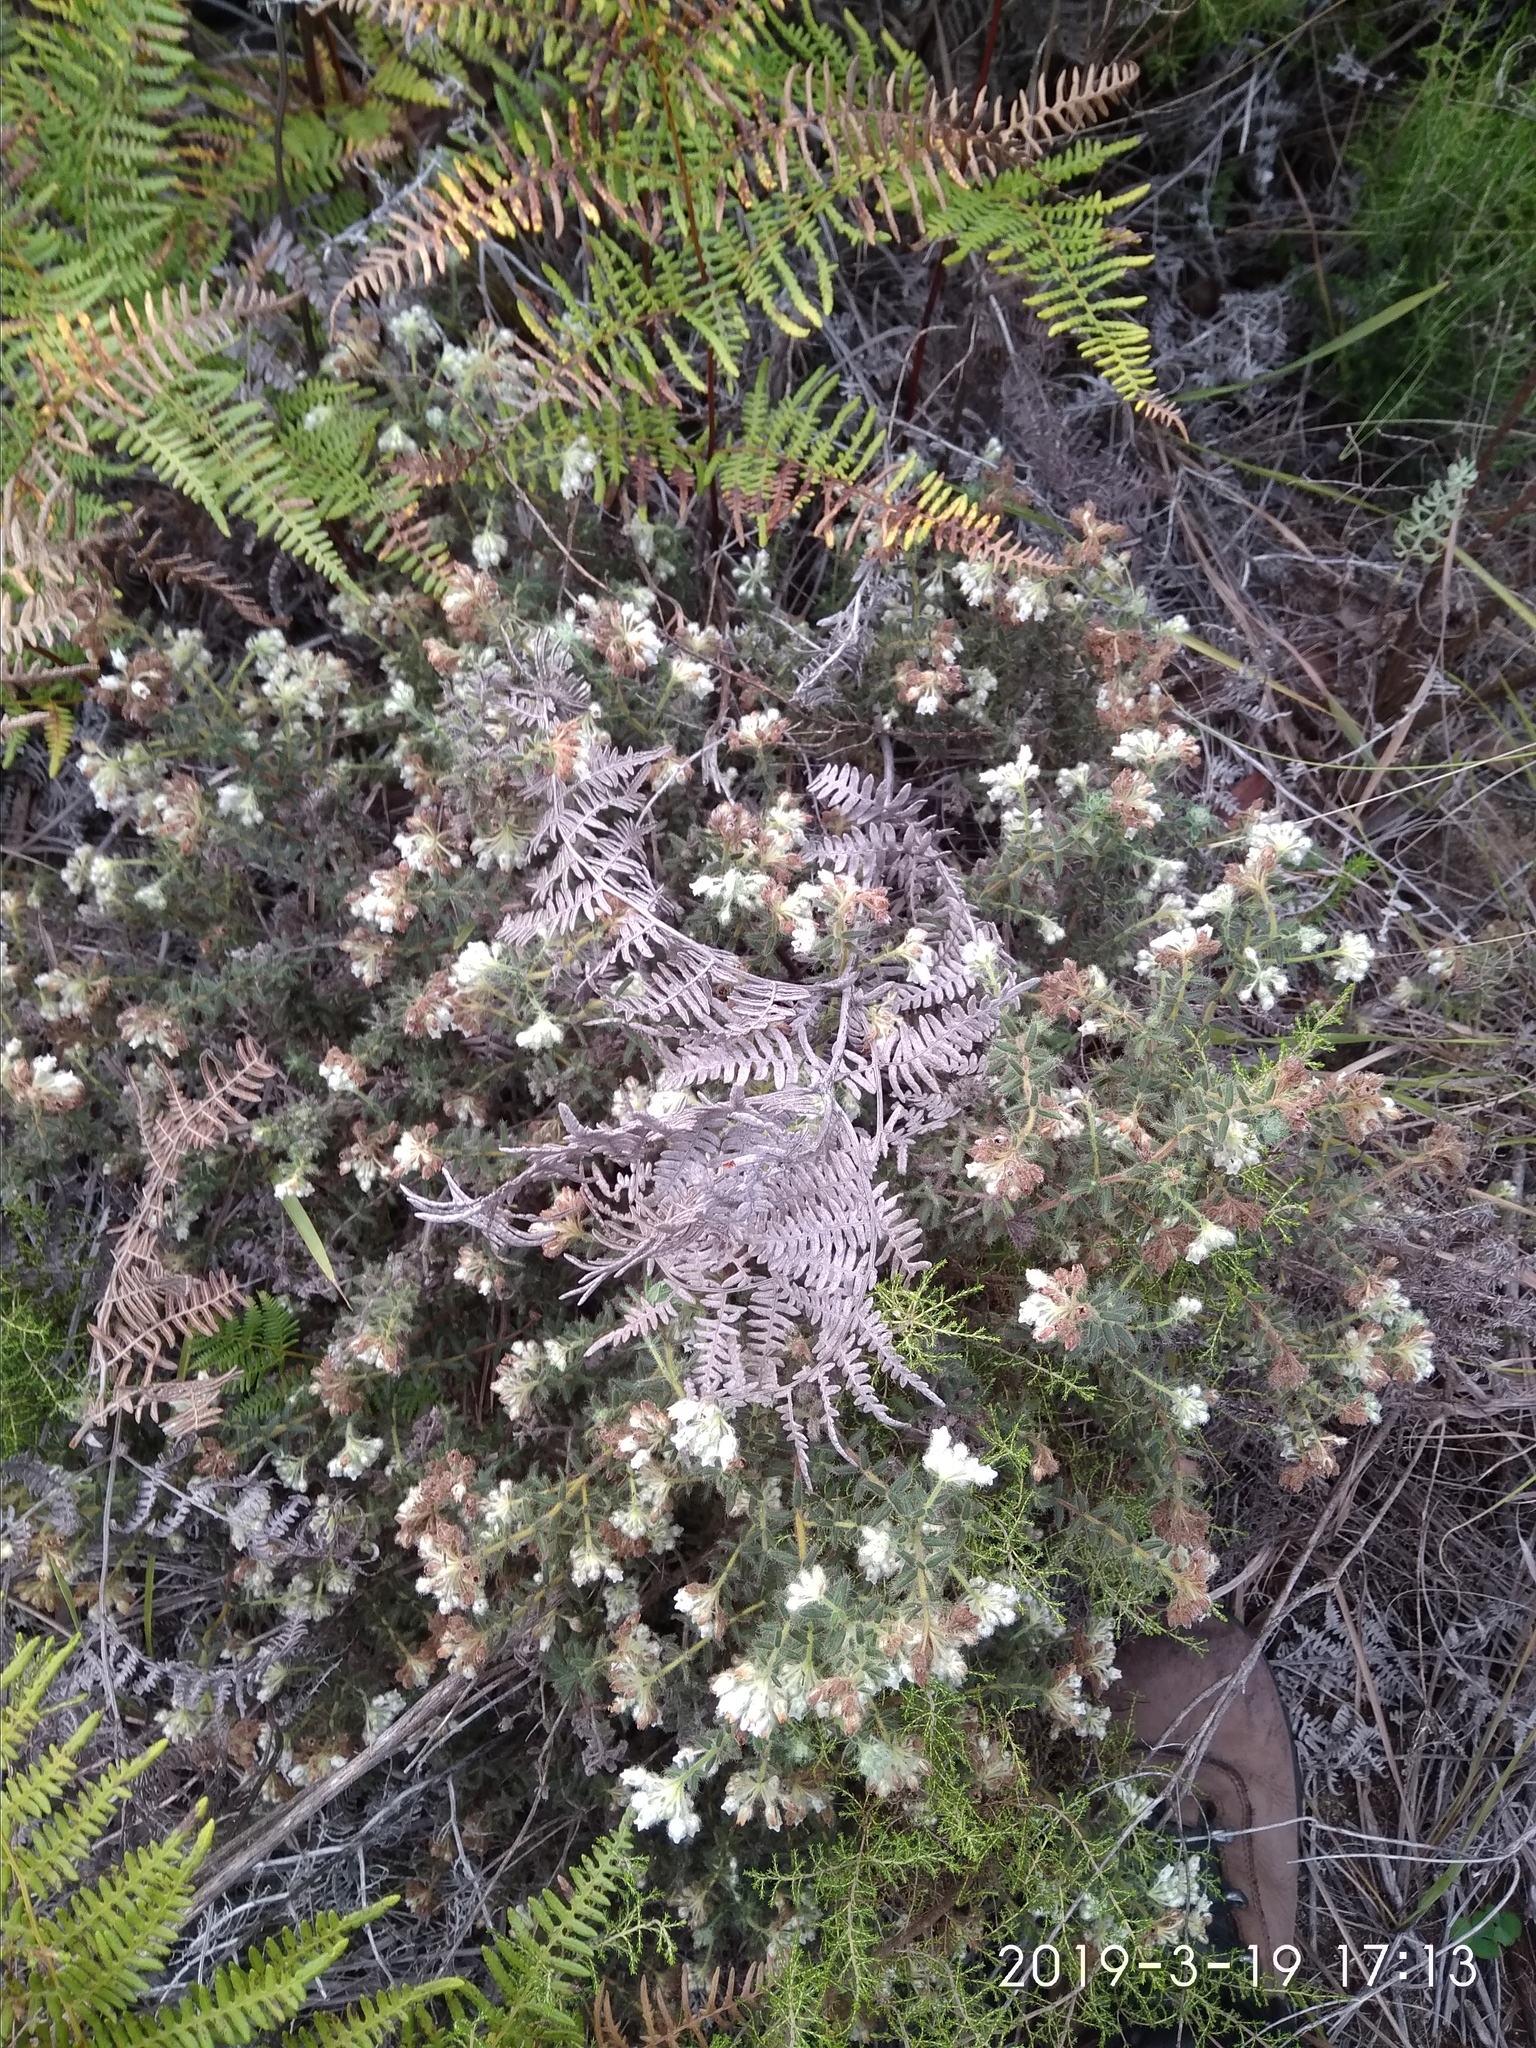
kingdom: Plantae
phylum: Tracheophyta
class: Magnoliopsida
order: Ericales
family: Ericaceae
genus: Erica
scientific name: Erica pannosa
